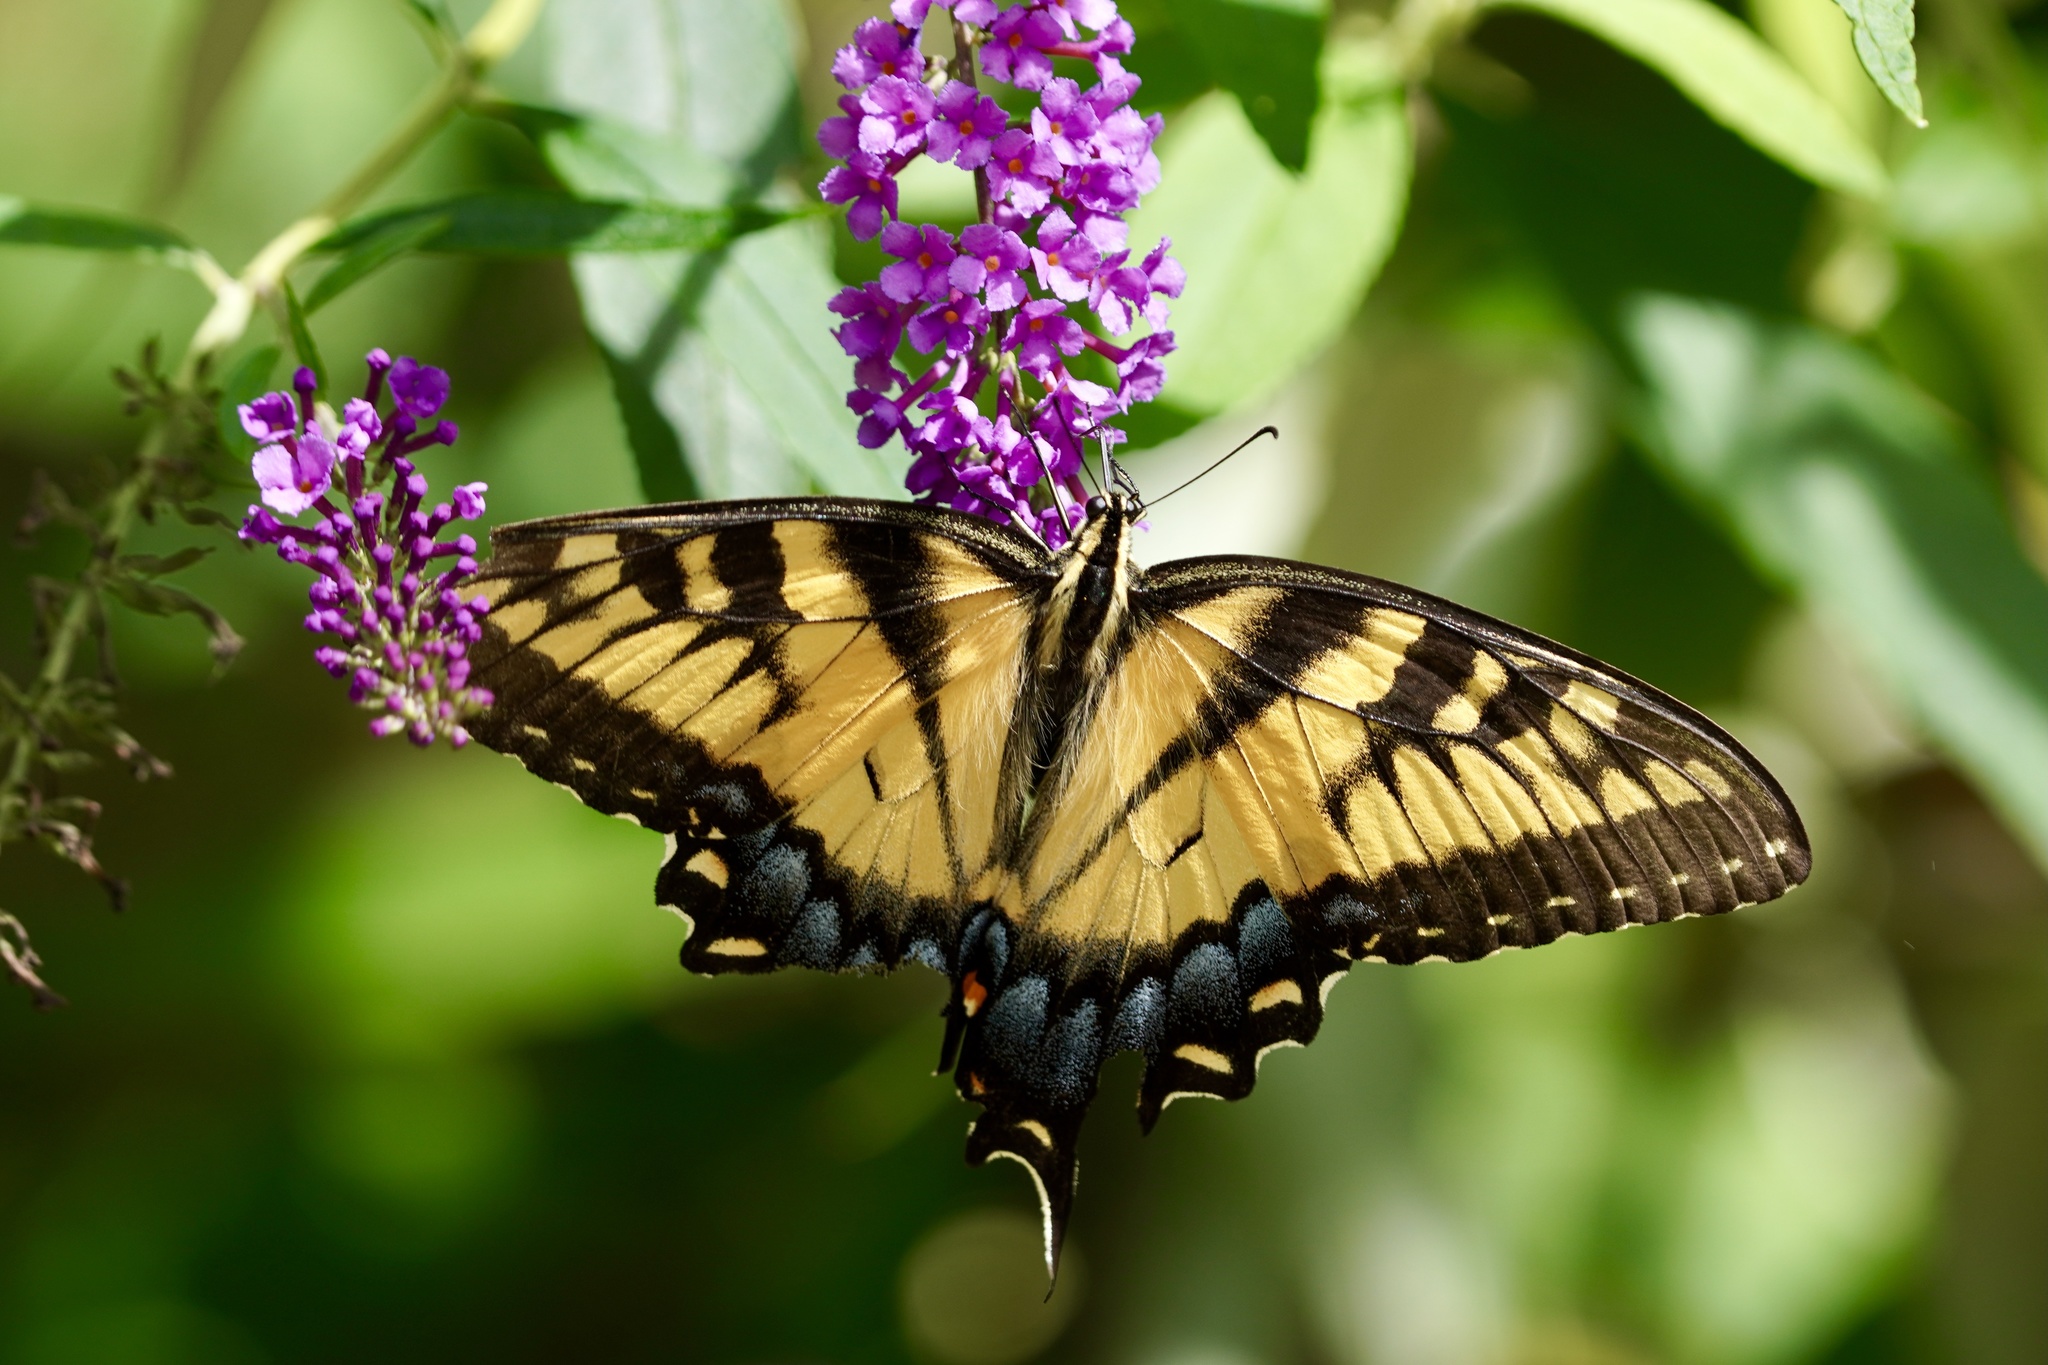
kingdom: Animalia
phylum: Arthropoda
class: Insecta
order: Lepidoptera
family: Papilionidae
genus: Papilio
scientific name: Papilio glaucus
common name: Tiger swallowtail
